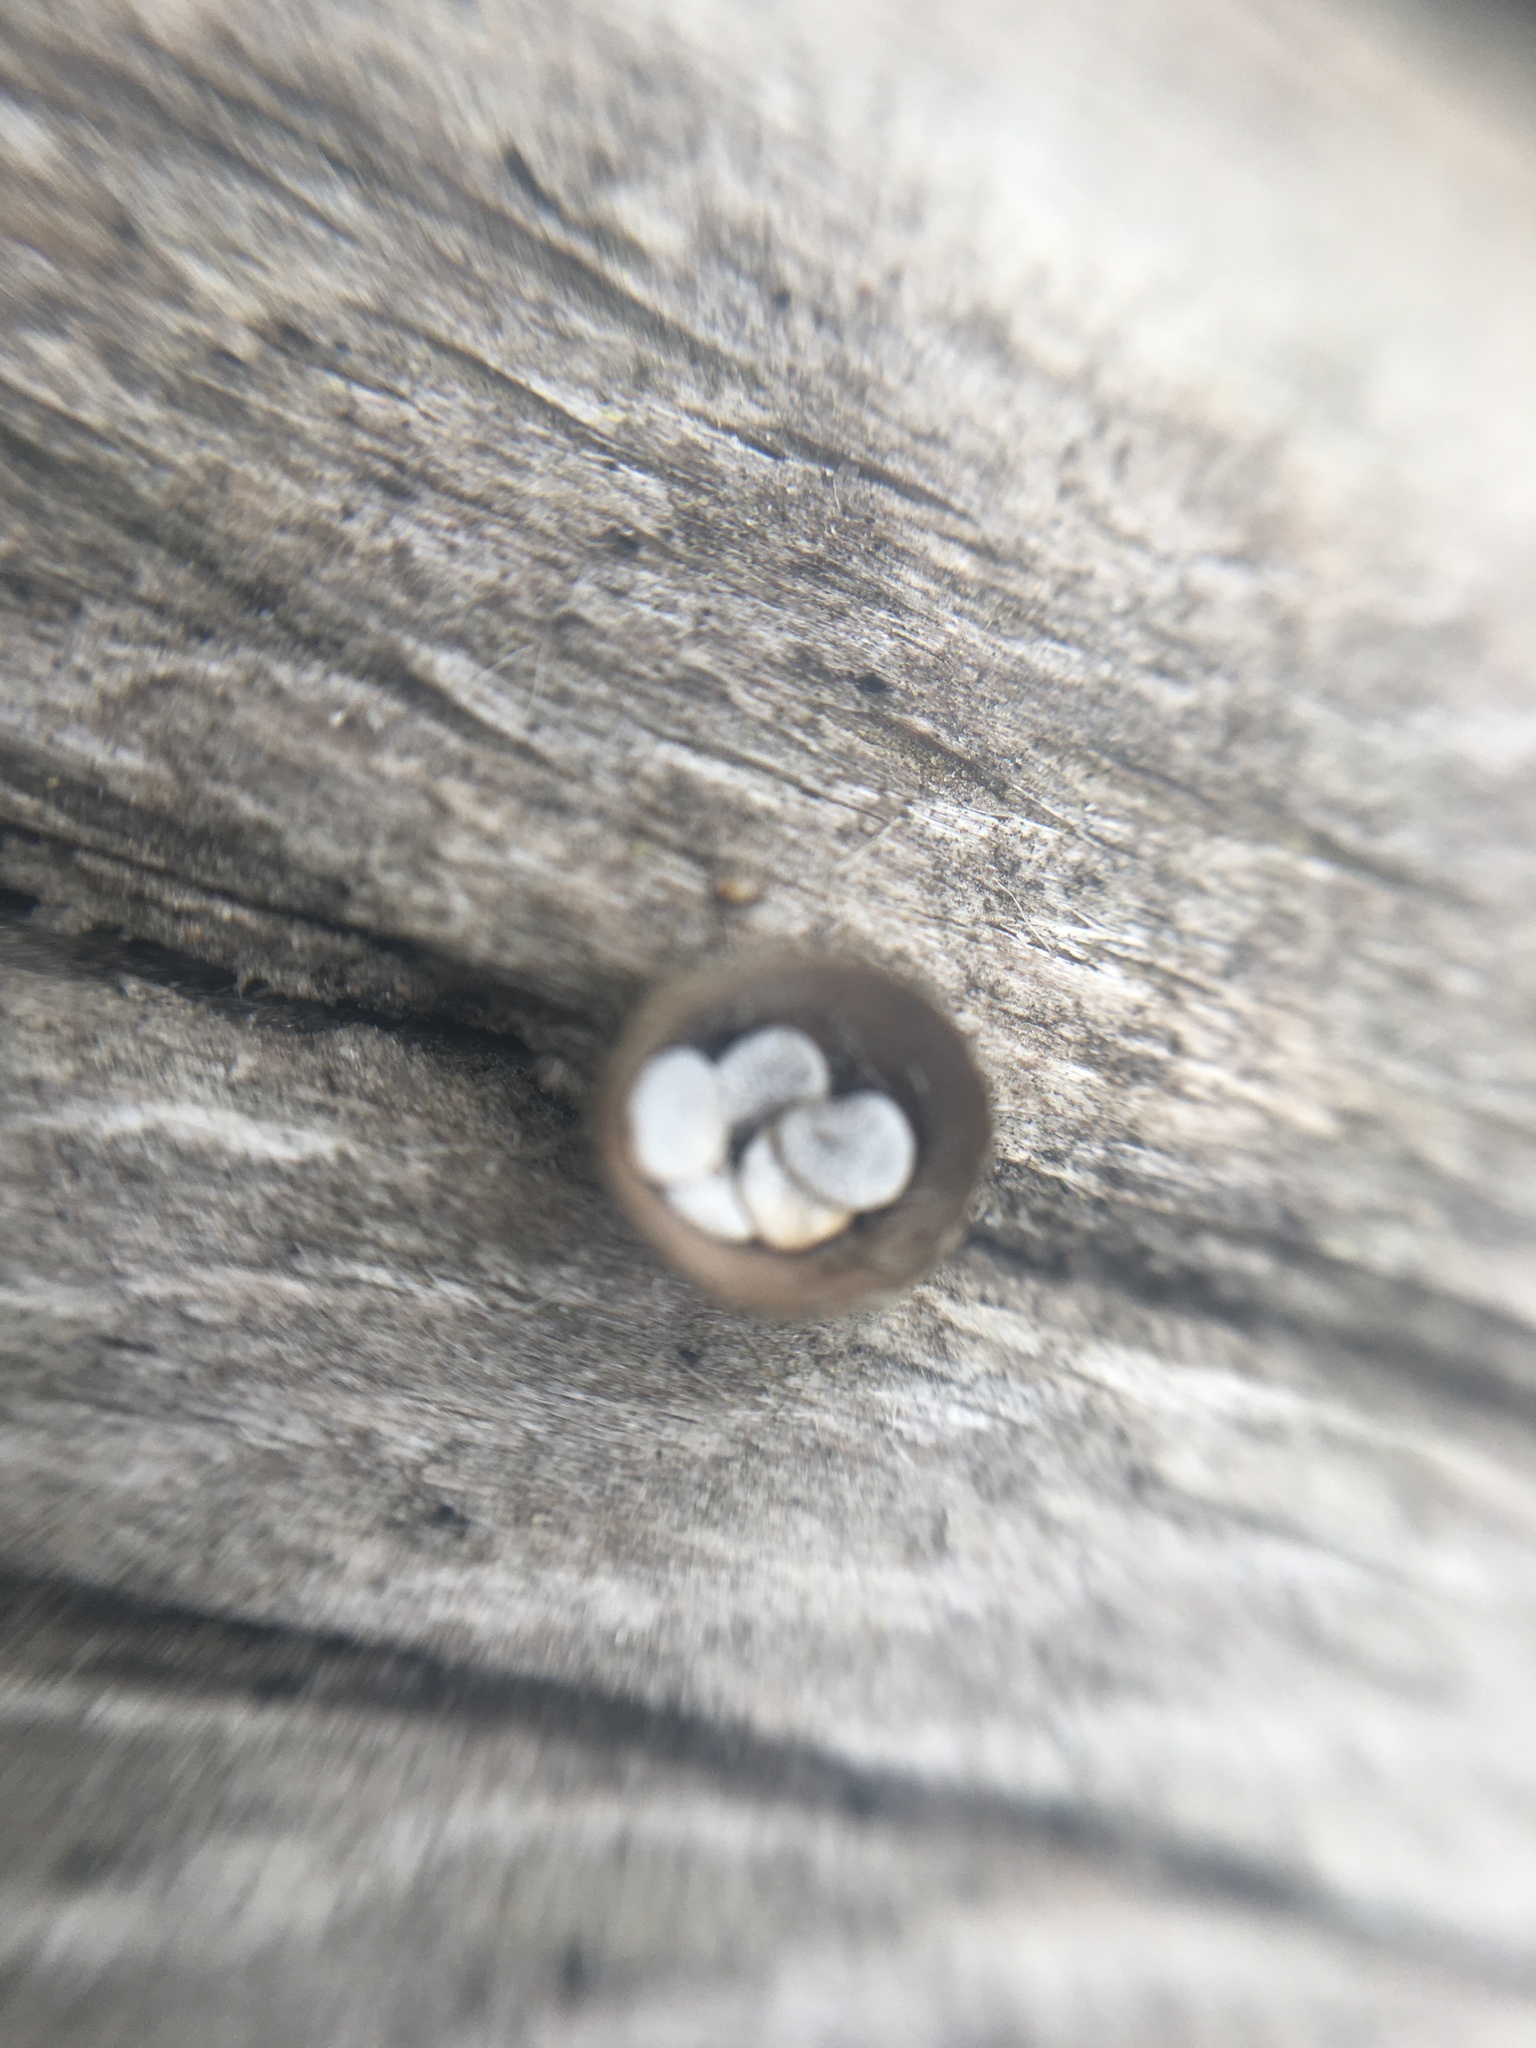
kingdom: Fungi
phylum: Basidiomycota
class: Agaricomycetes
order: Agaricales
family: Nidulariaceae
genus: Crucibulum
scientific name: Crucibulum laeve
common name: Common bird's nest
